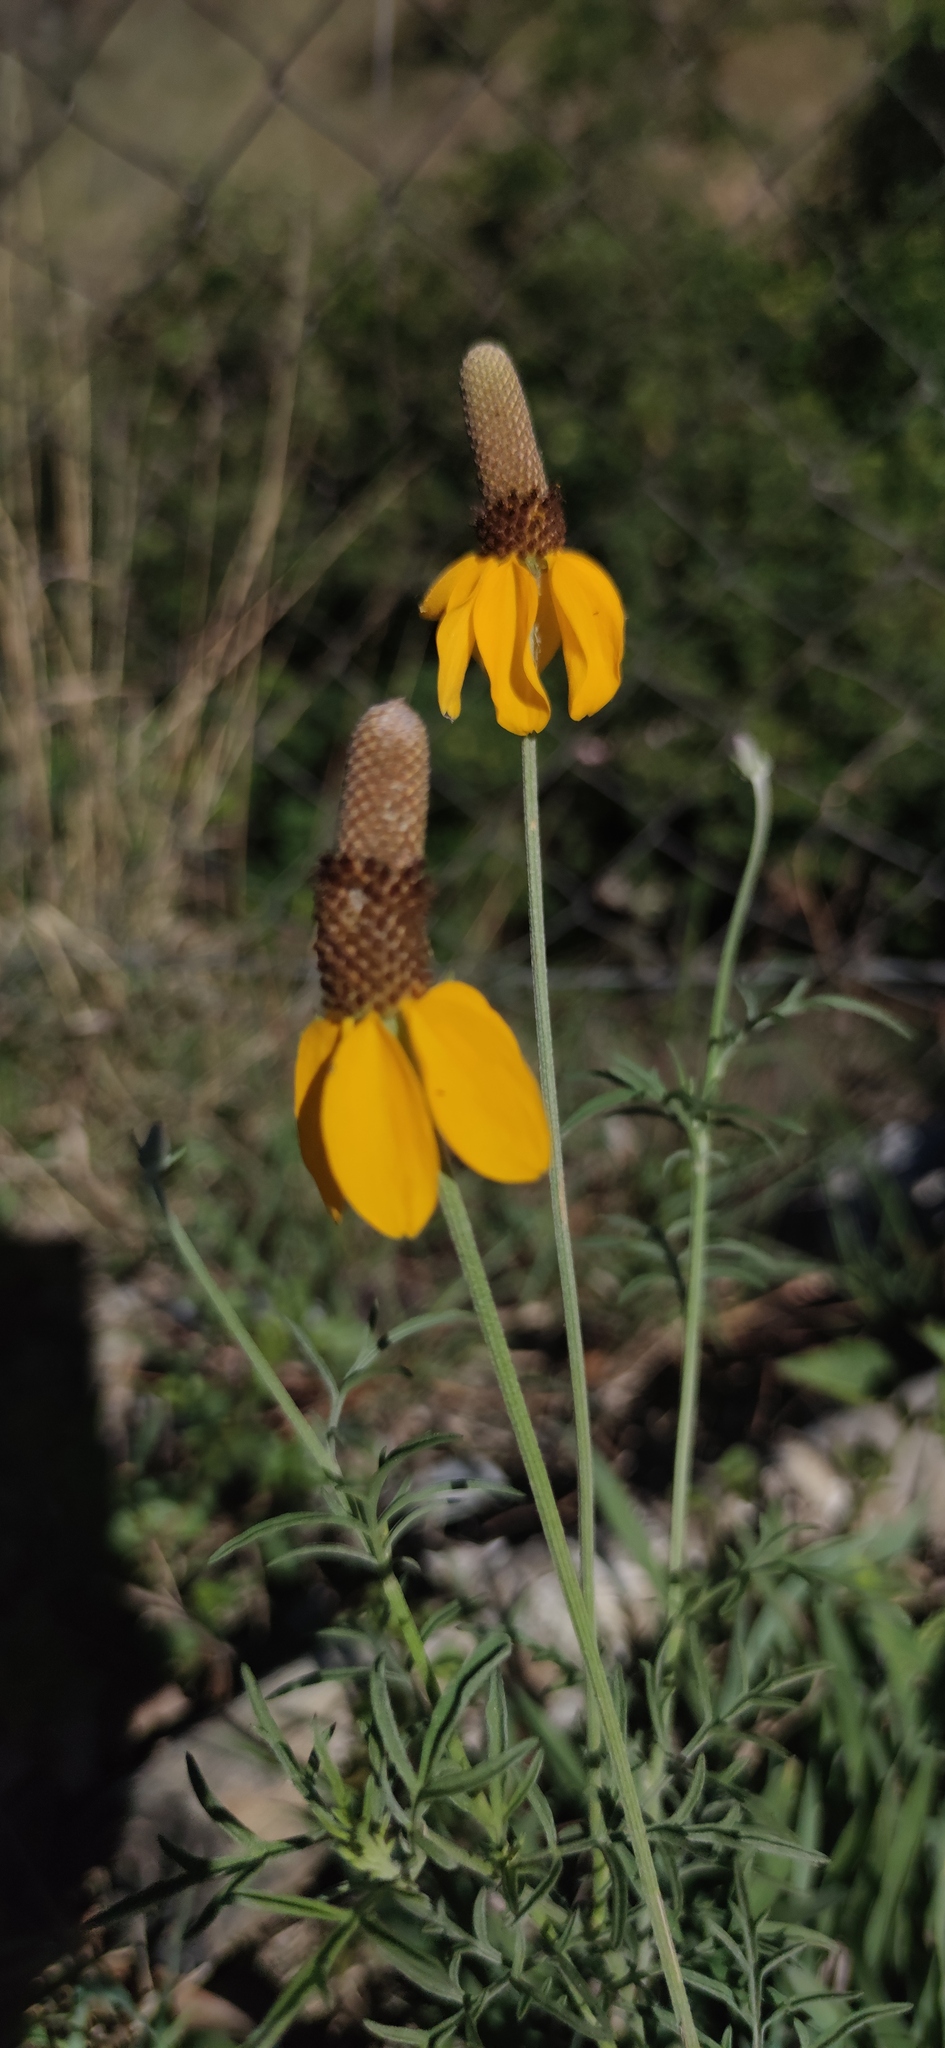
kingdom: Plantae
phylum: Tracheophyta
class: Magnoliopsida
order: Asterales
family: Asteraceae
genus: Ratibida
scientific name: Ratibida columnifera
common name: Prairie coneflower
